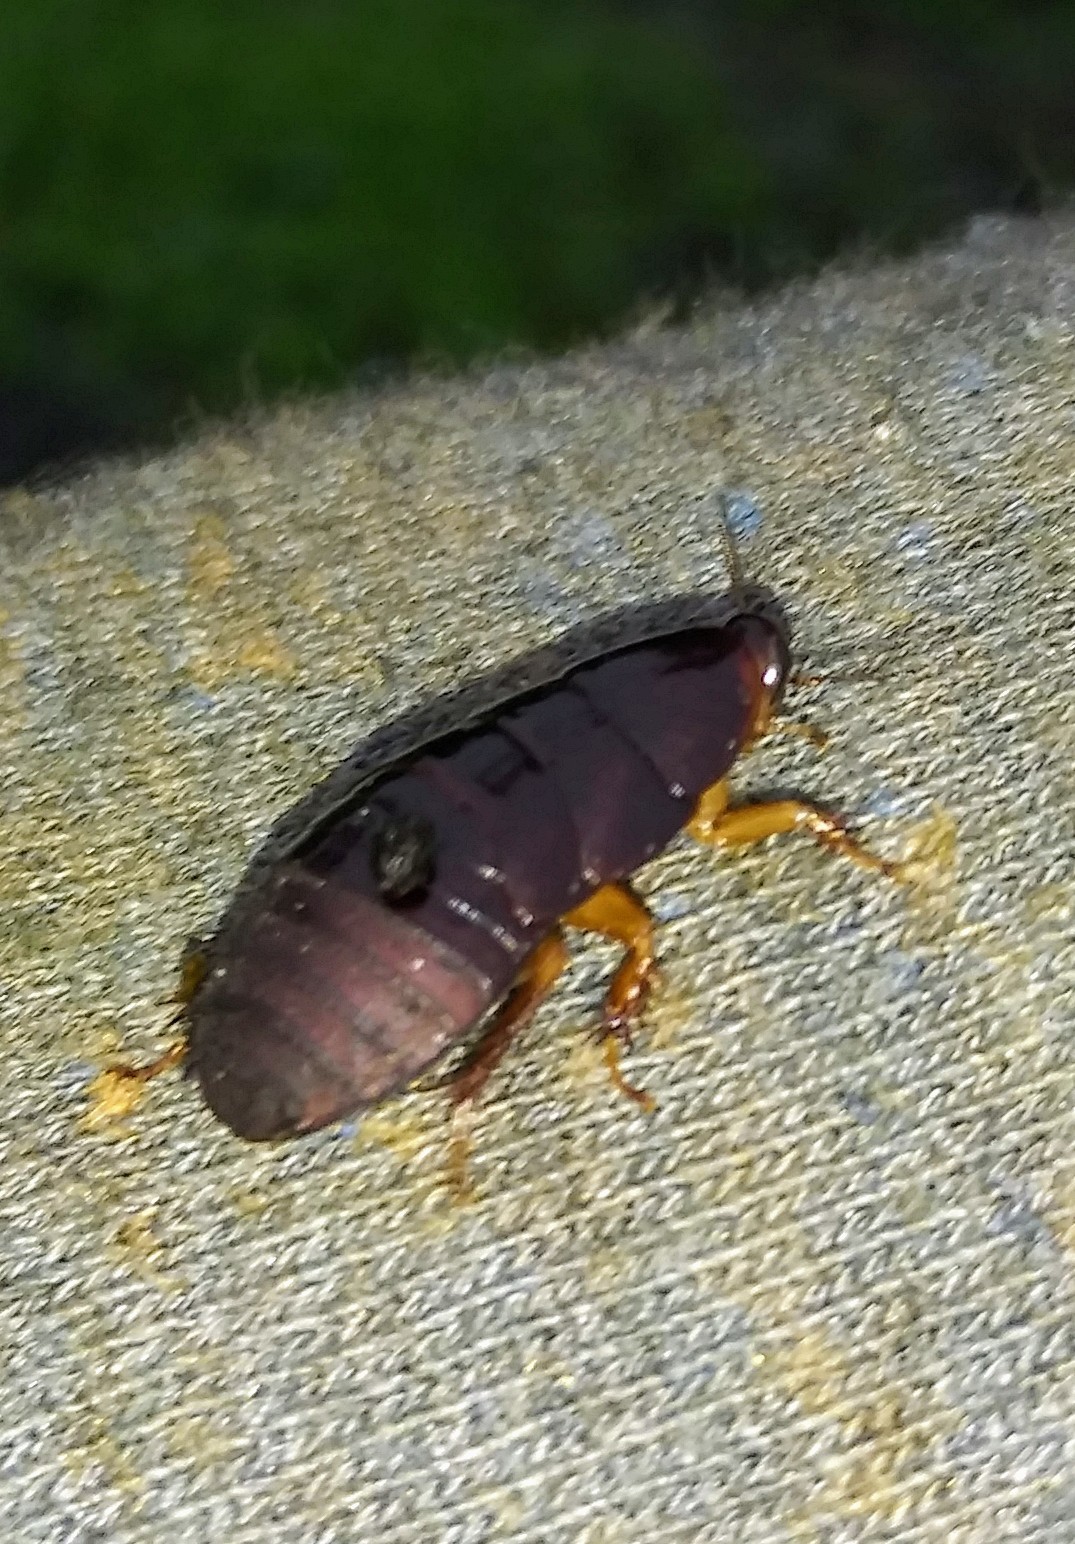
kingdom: Animalia
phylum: Arthropoda
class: Insecta
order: Blattodea
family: Blaberidae
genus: Pycnoscelus
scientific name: Pycnoscelus surinamensis
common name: Surinam cockroach
